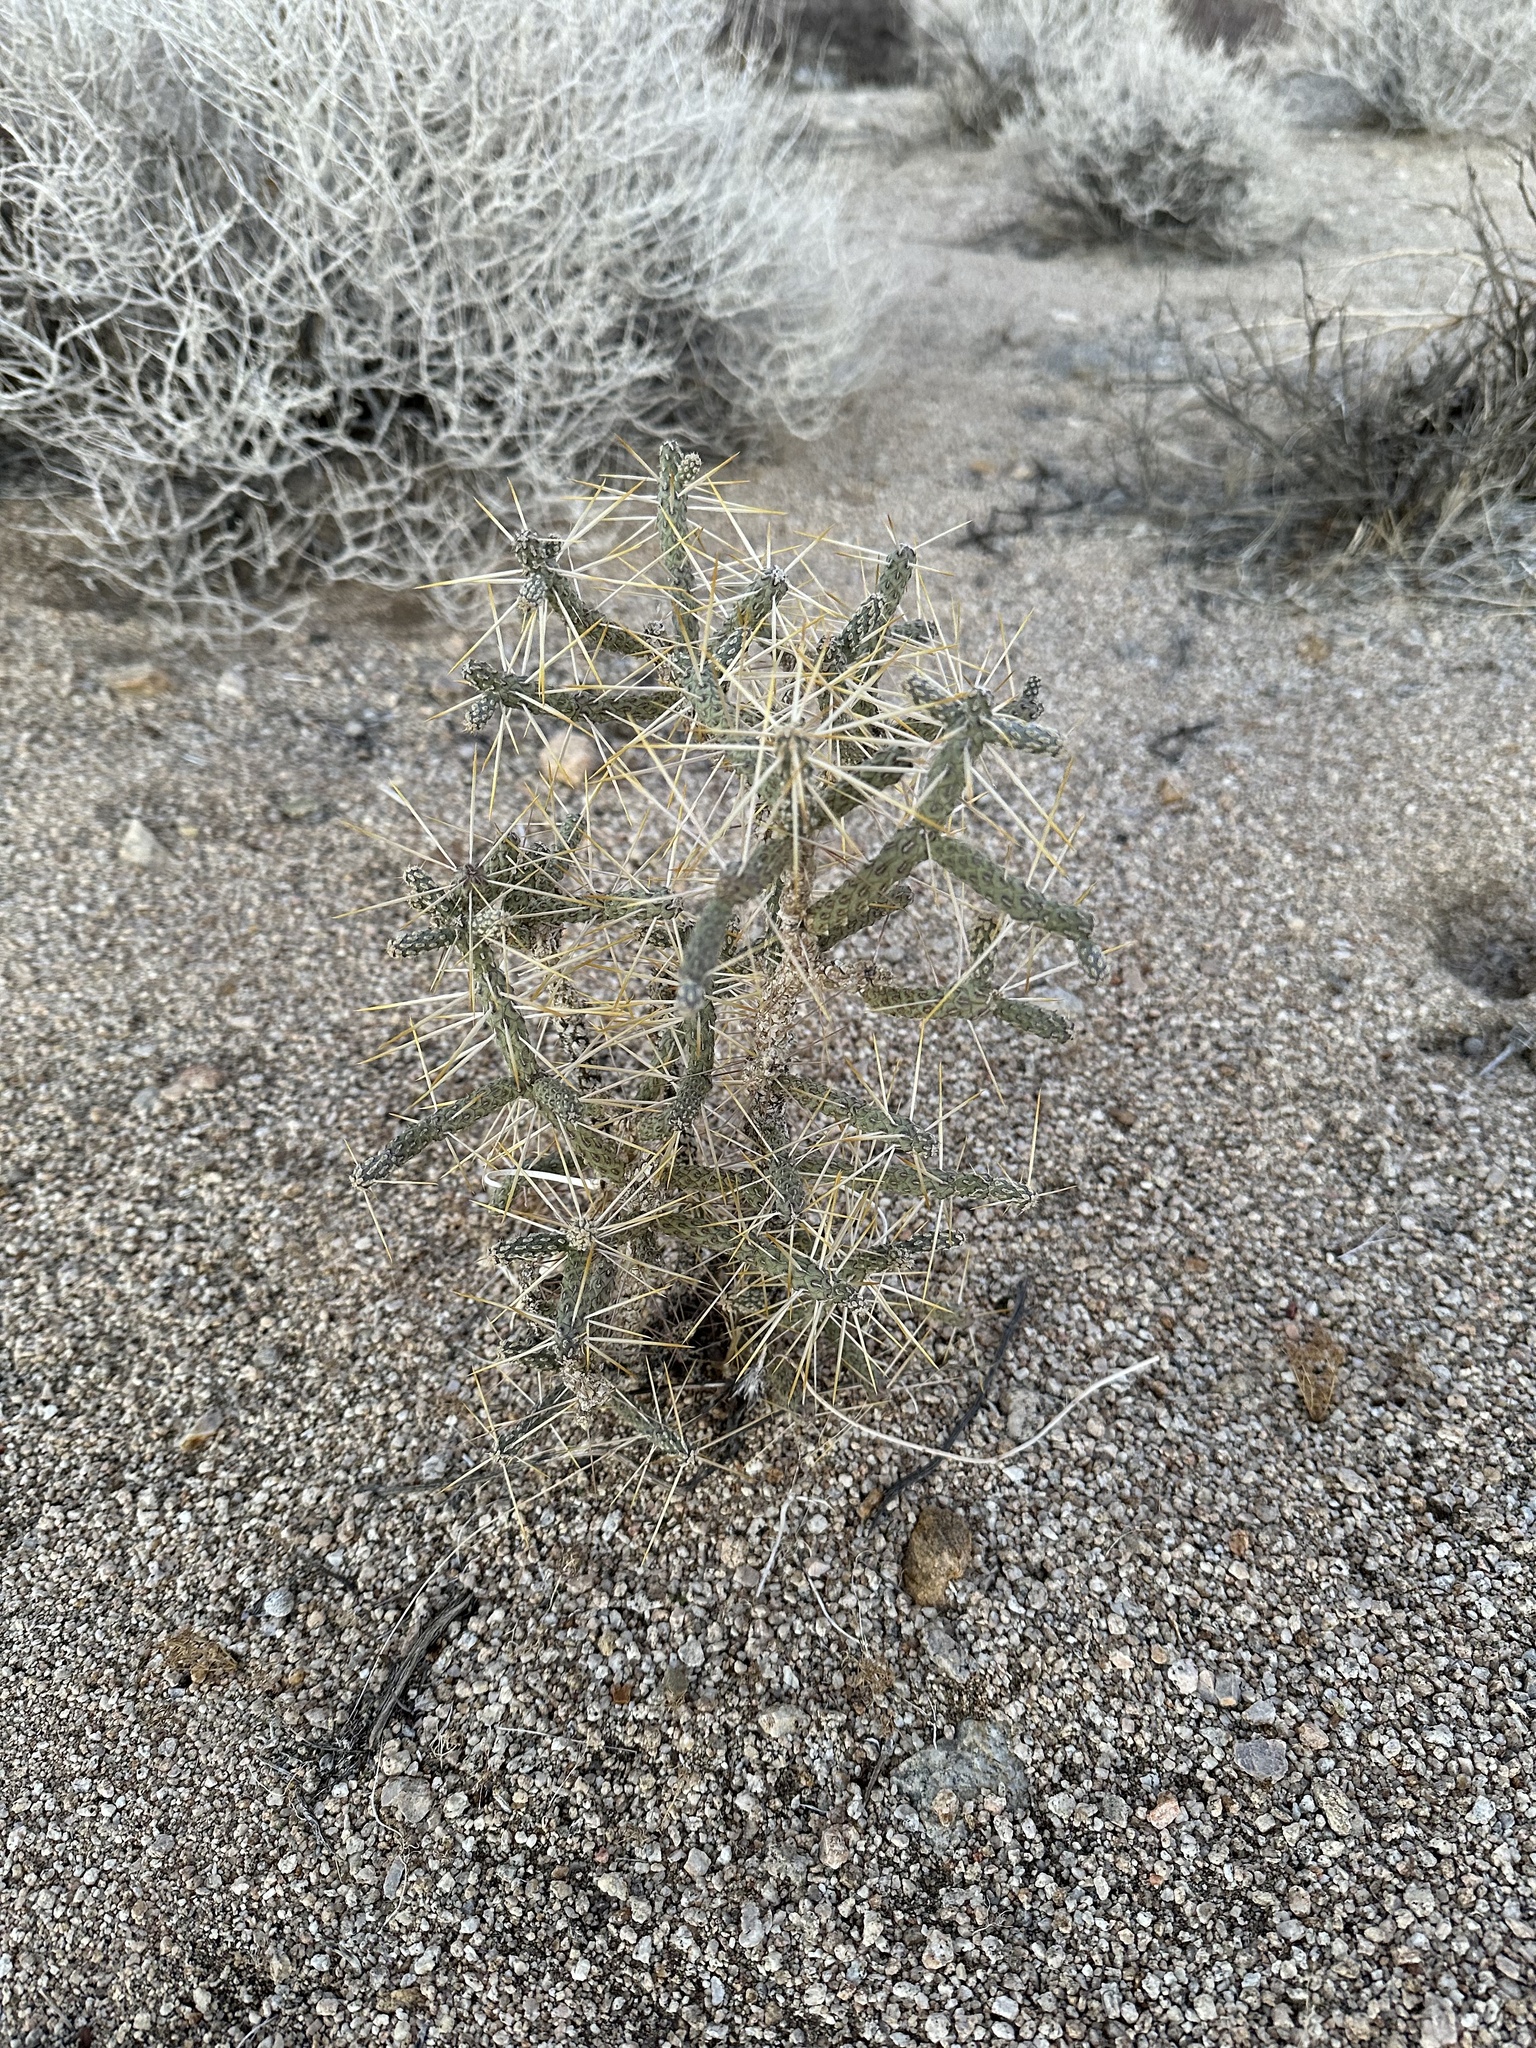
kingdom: Plantae
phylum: Tracheophyta
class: Magnoliopsida
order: Caryophyllales
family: Cactaceae
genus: Cylindropuntia
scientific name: Cylindropuntia ramosissima
